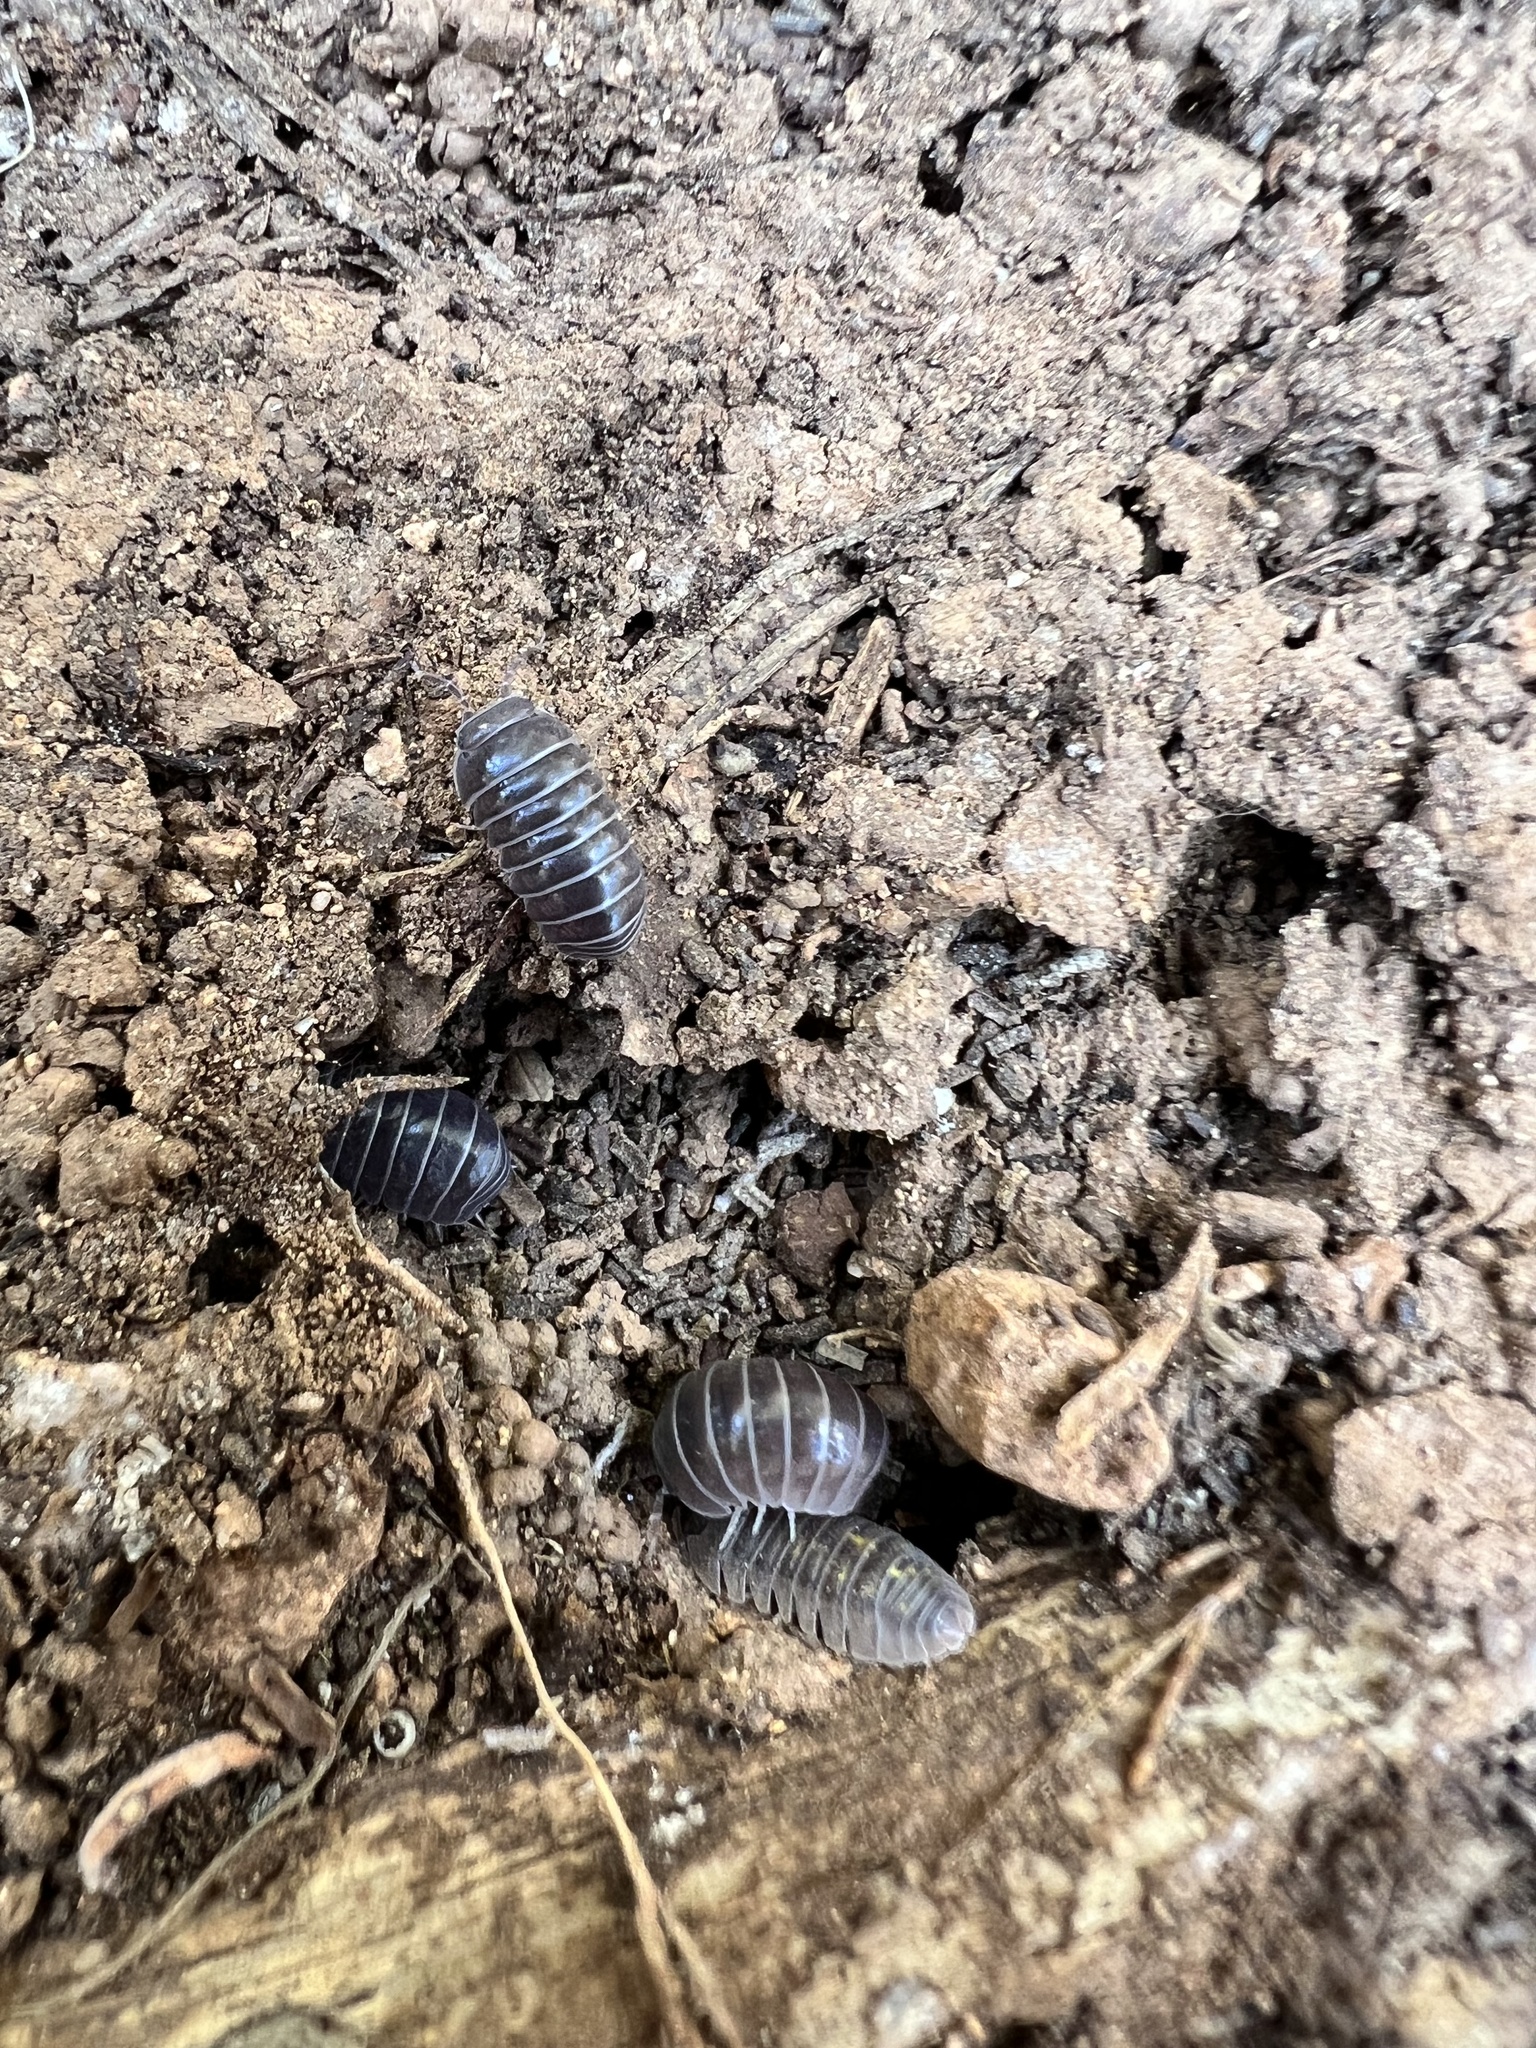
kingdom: Animalia
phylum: Arthropoda
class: Malacostraca
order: Isopoda
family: Armadillidae
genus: Armadillo
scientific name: Armadillo officinalis
